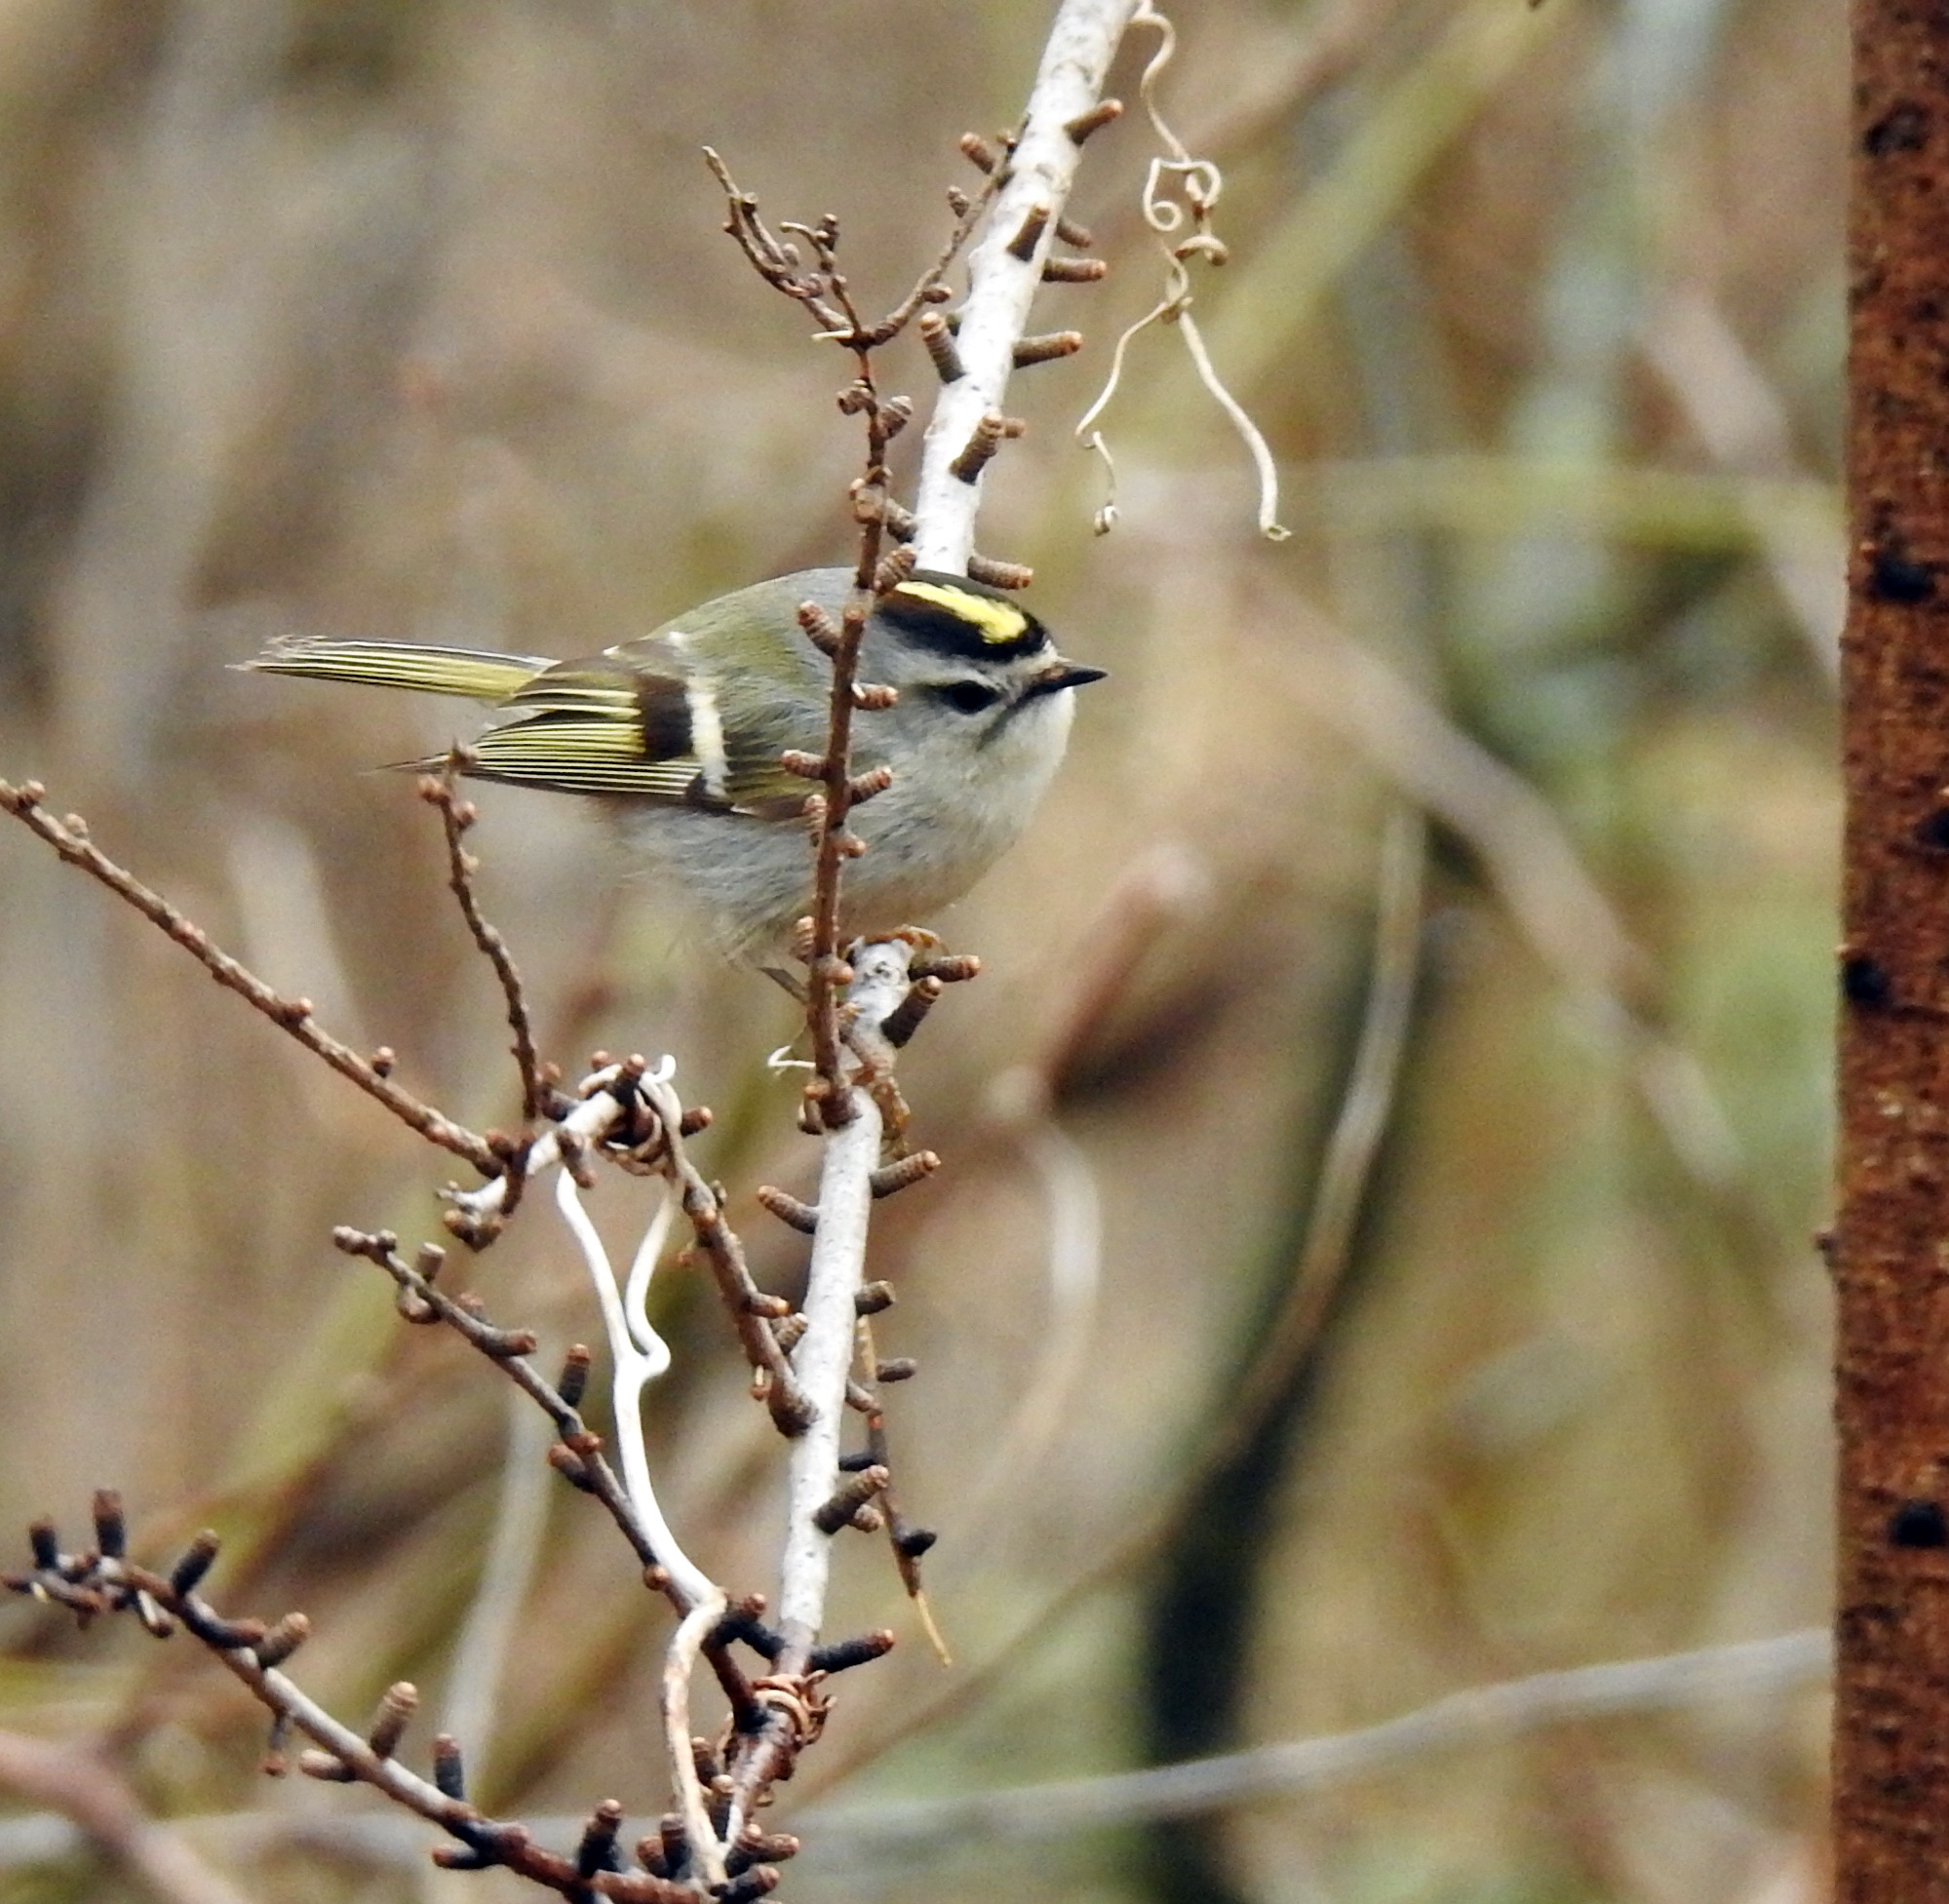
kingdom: Animalia
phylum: Chordata
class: Aves
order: Passeriformes
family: Regulidae
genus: Regulus
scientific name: Regulus satrapa
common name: Golden-crowned kinglet
